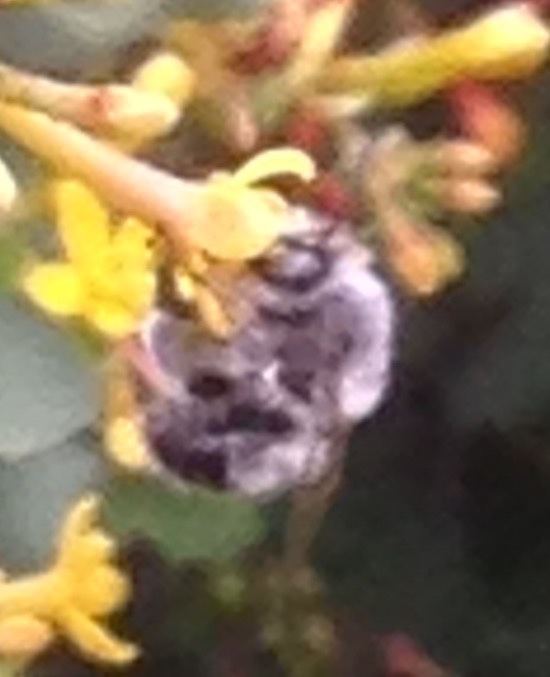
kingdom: Animalia
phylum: Arthropoda
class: Insecta
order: Hymenoptera
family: Apidae
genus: Apidae
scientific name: Apidae
